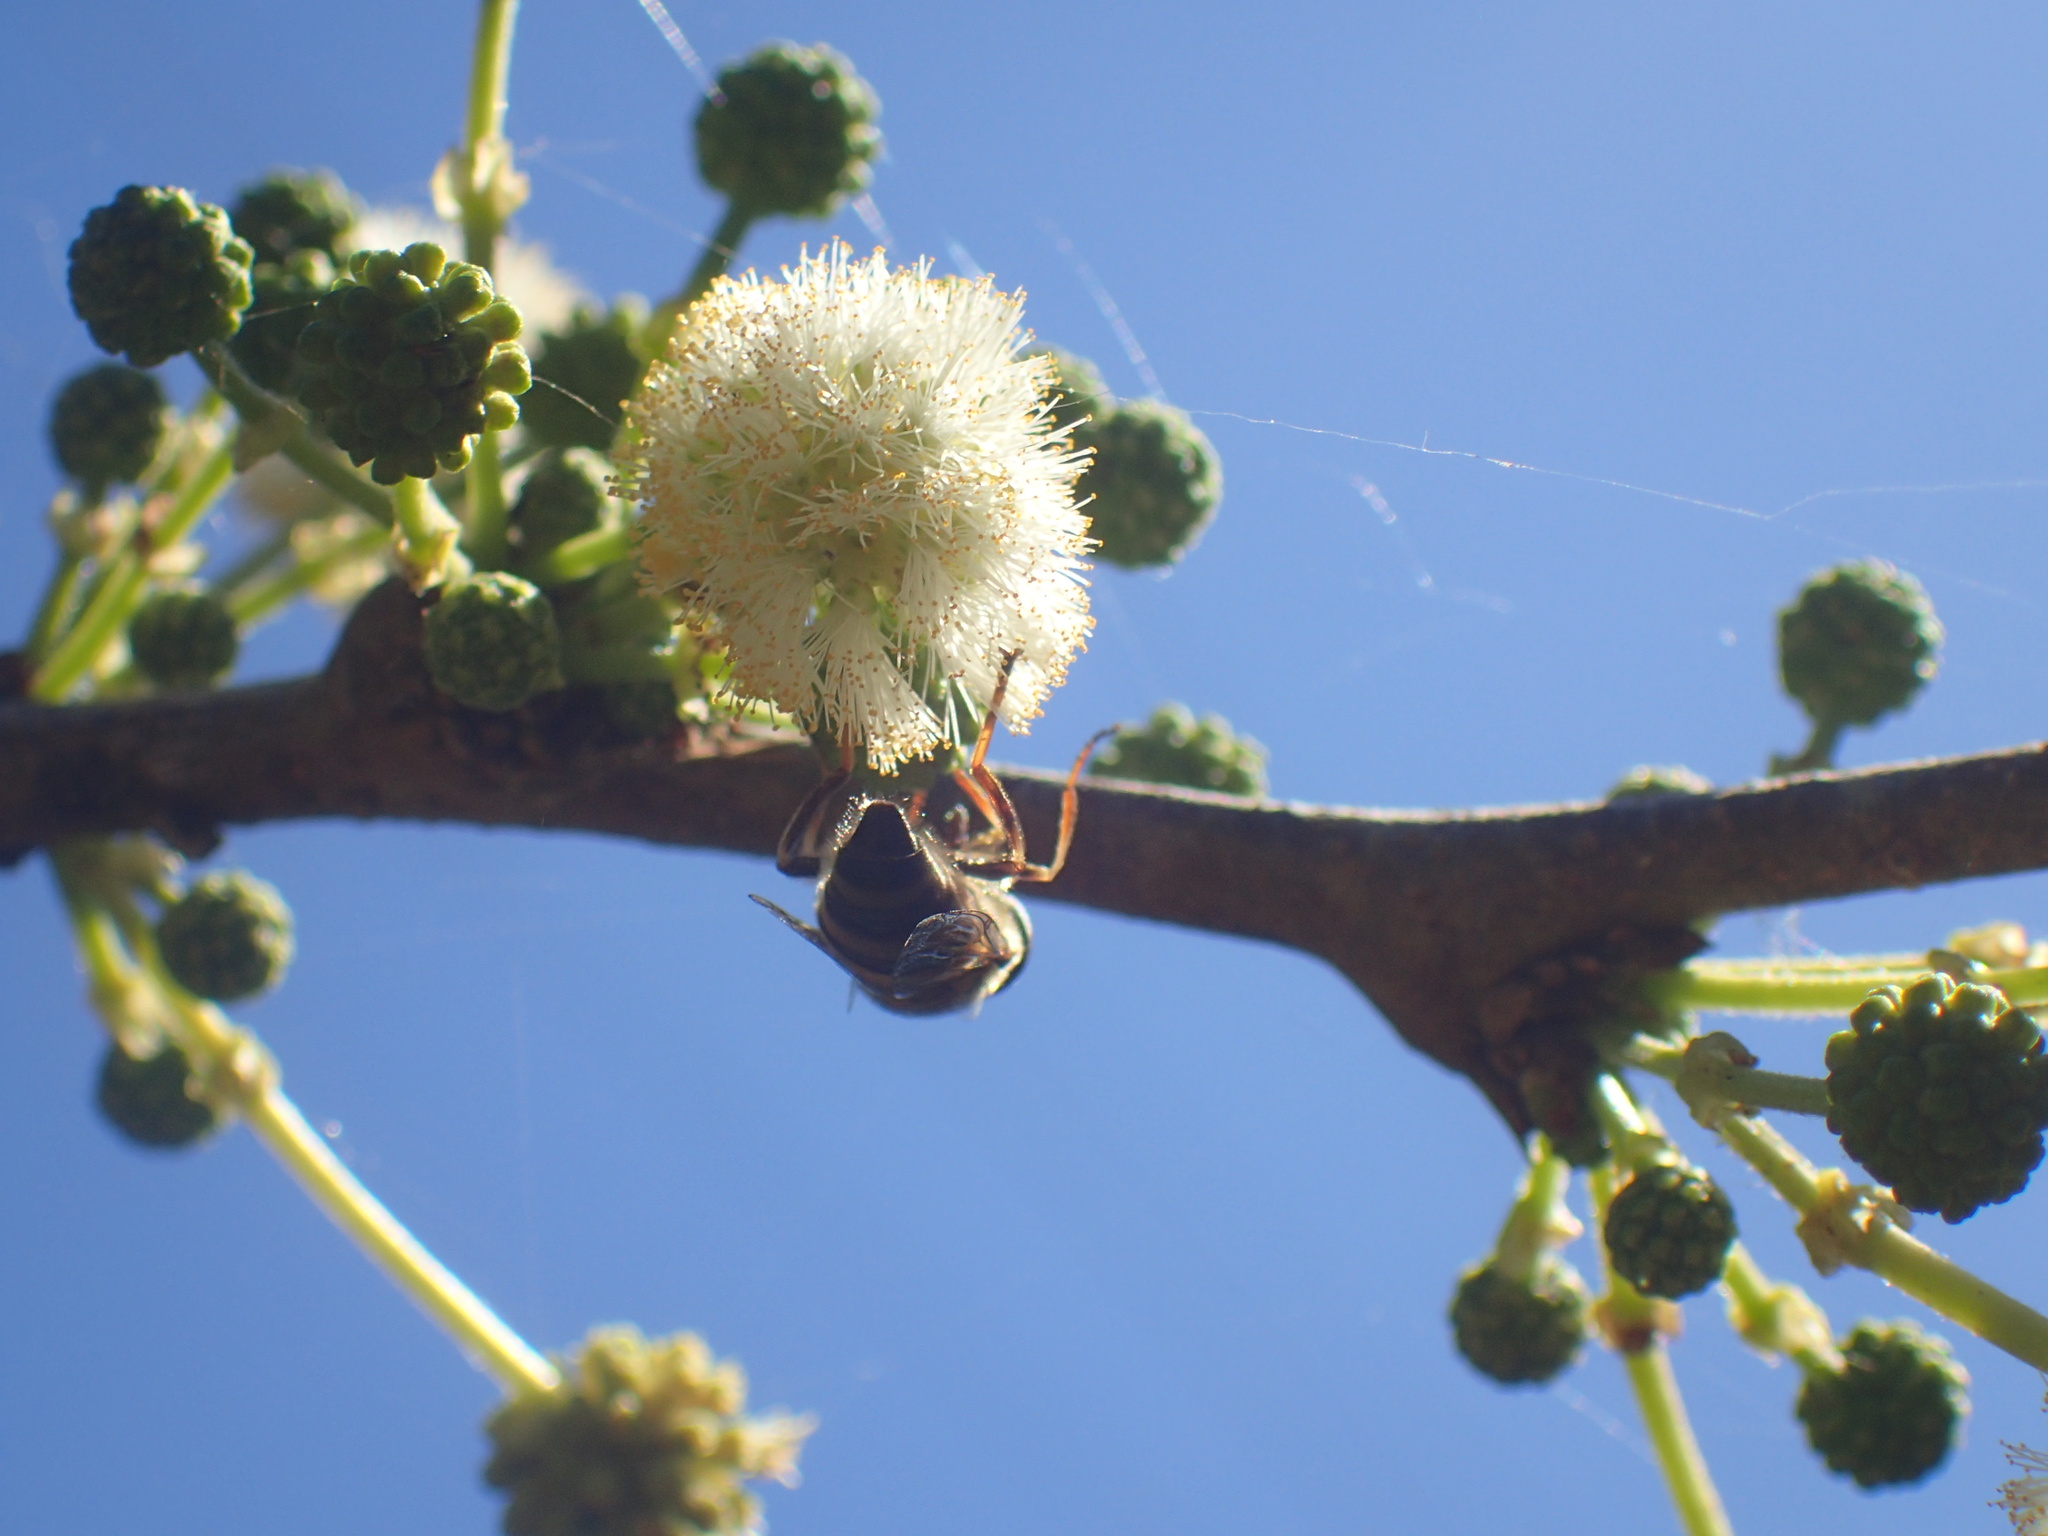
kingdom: Animalia
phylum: Arthropoda
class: Insecta
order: Diptera
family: Syrphidae
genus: Eristalinus
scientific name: Eristalinus taeniops
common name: Syrphid fly
